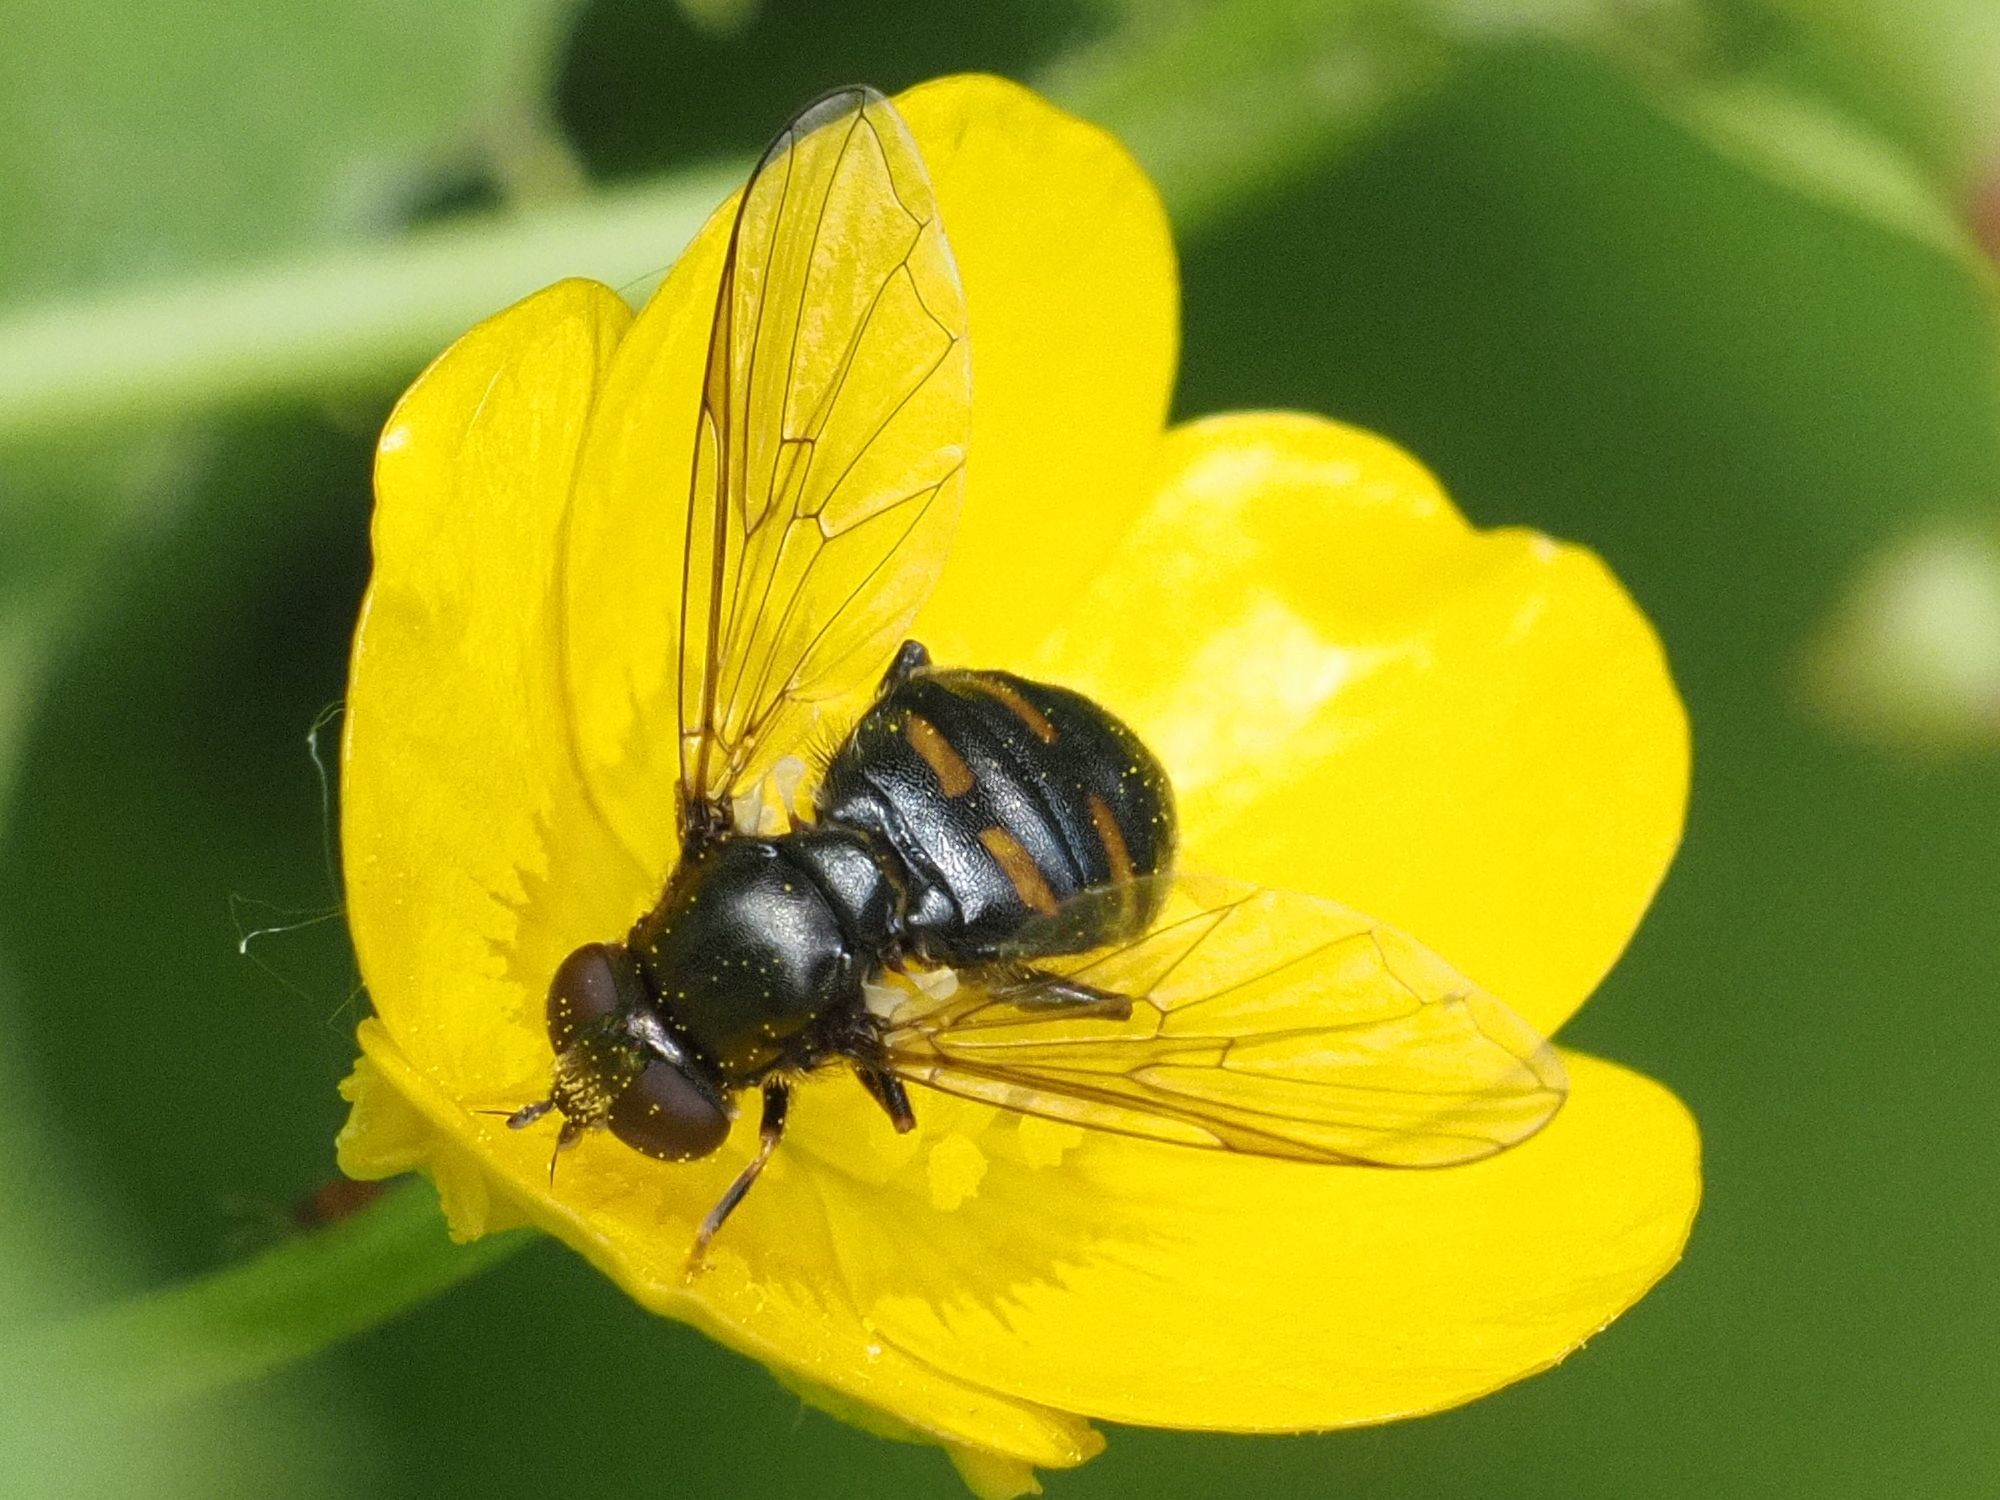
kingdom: Animalia
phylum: Arthropoda
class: Insecta
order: Diptera
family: Syrphidae
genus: Pipiza
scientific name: Pipiza quadrimaculata
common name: Four-spotted pipiza
